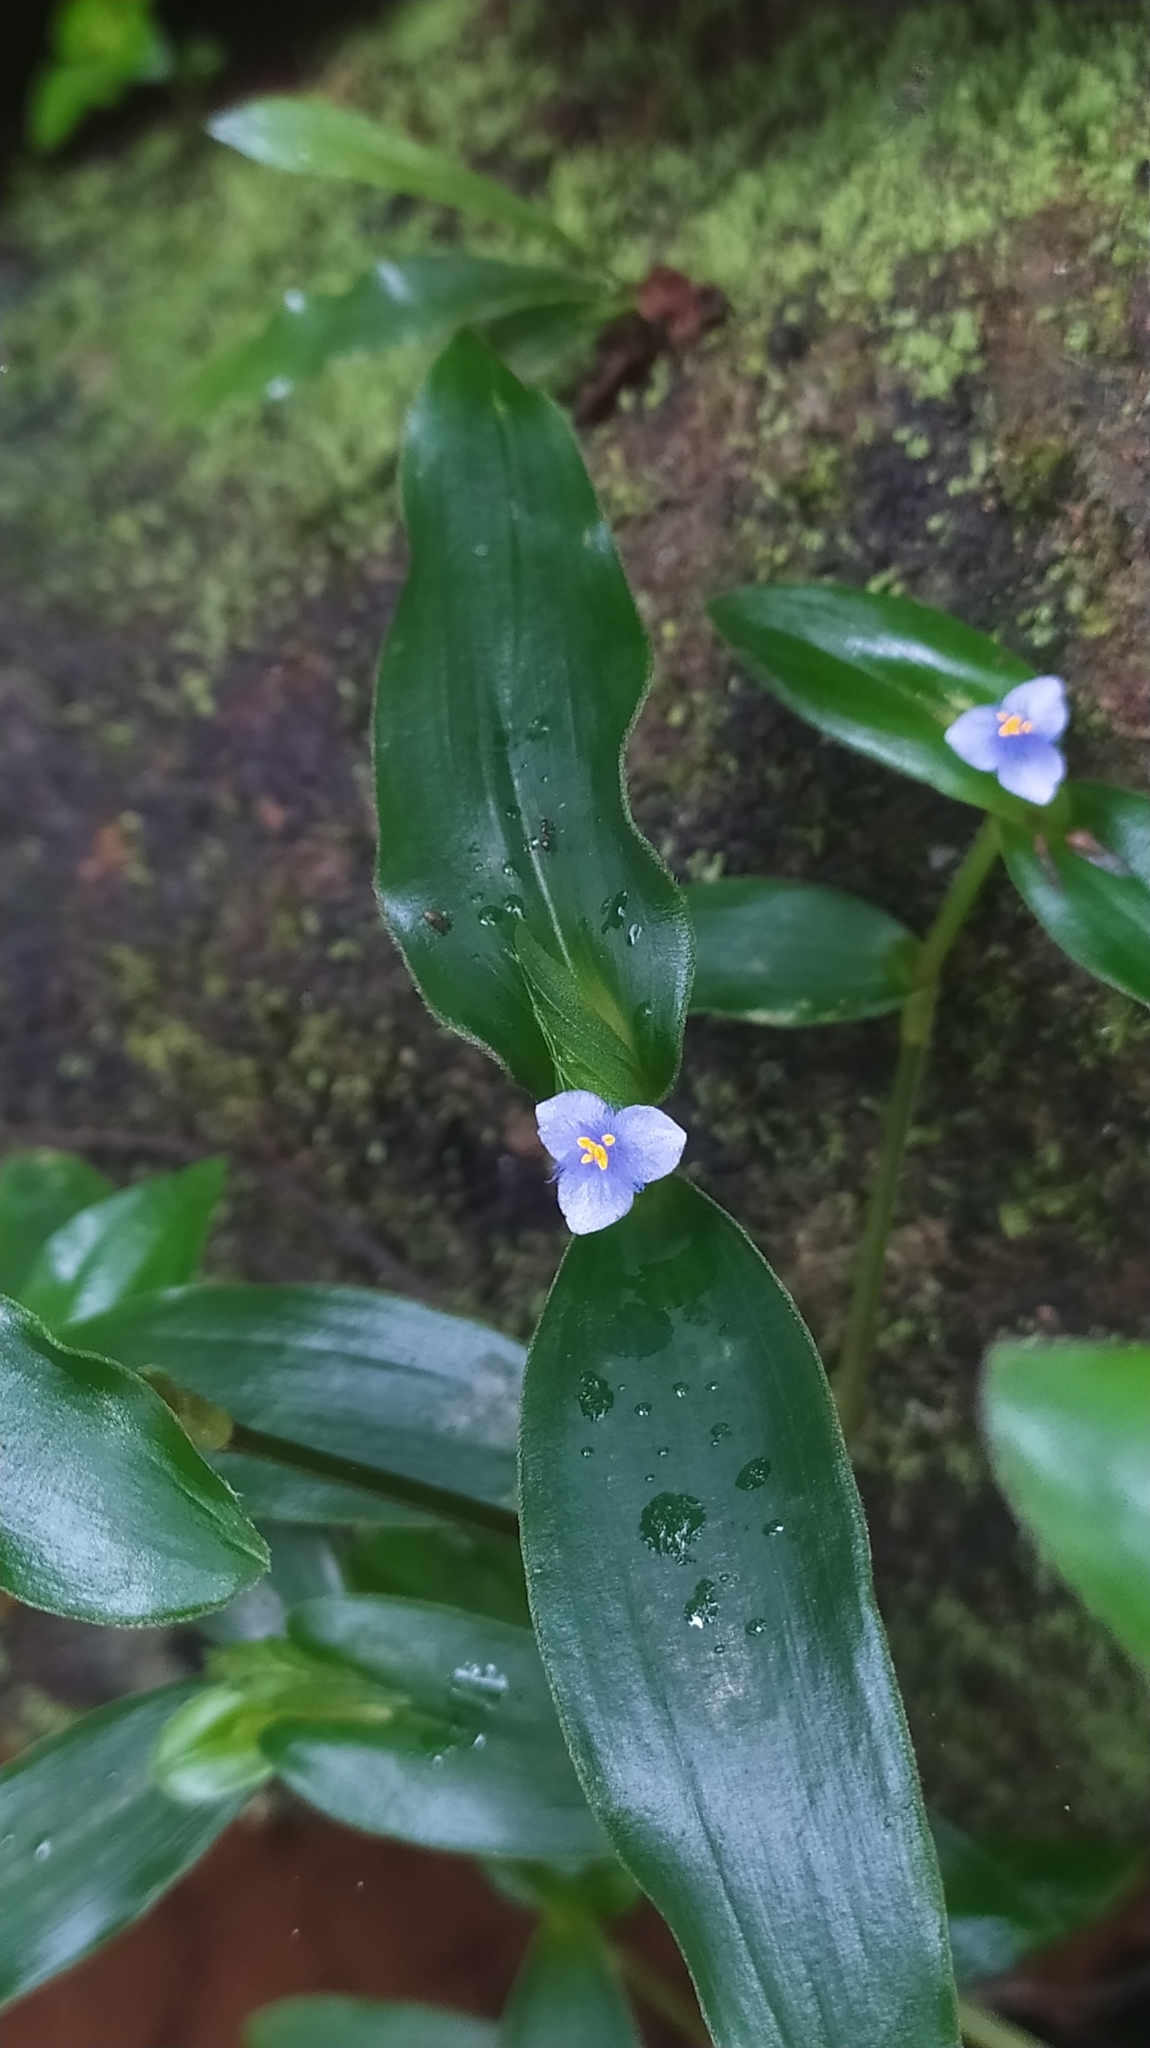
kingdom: Plantae
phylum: Tracheophyta
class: Liliopsida
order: Commelinales
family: Commelinaceae
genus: Cyanotis
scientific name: Cyanotis cristata
